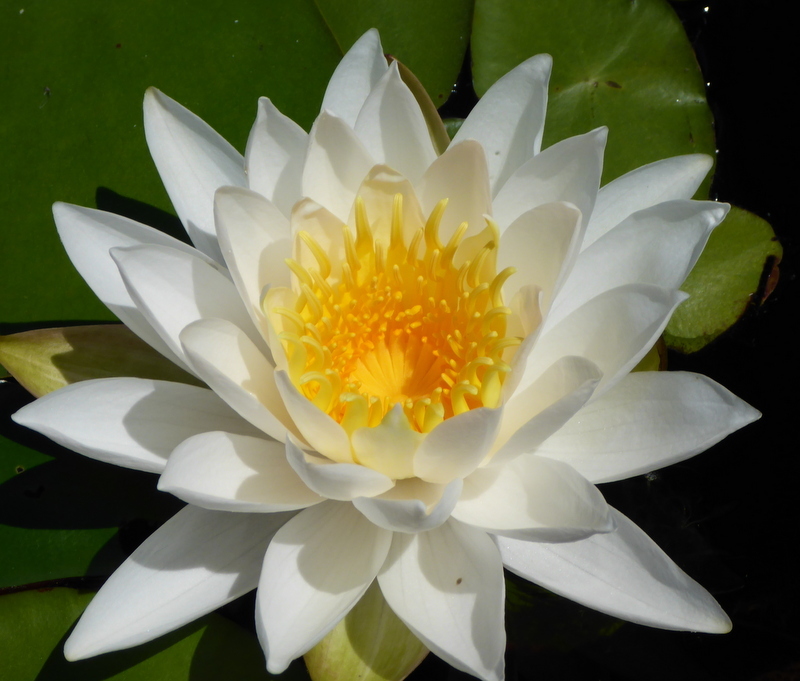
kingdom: Plantae
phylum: Tracheophyta
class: Magnoliopsida
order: Nymphaeales
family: Nymphaeaceae
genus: Nymphaea
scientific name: Nymphaea odorata
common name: Fragrant water-lily
